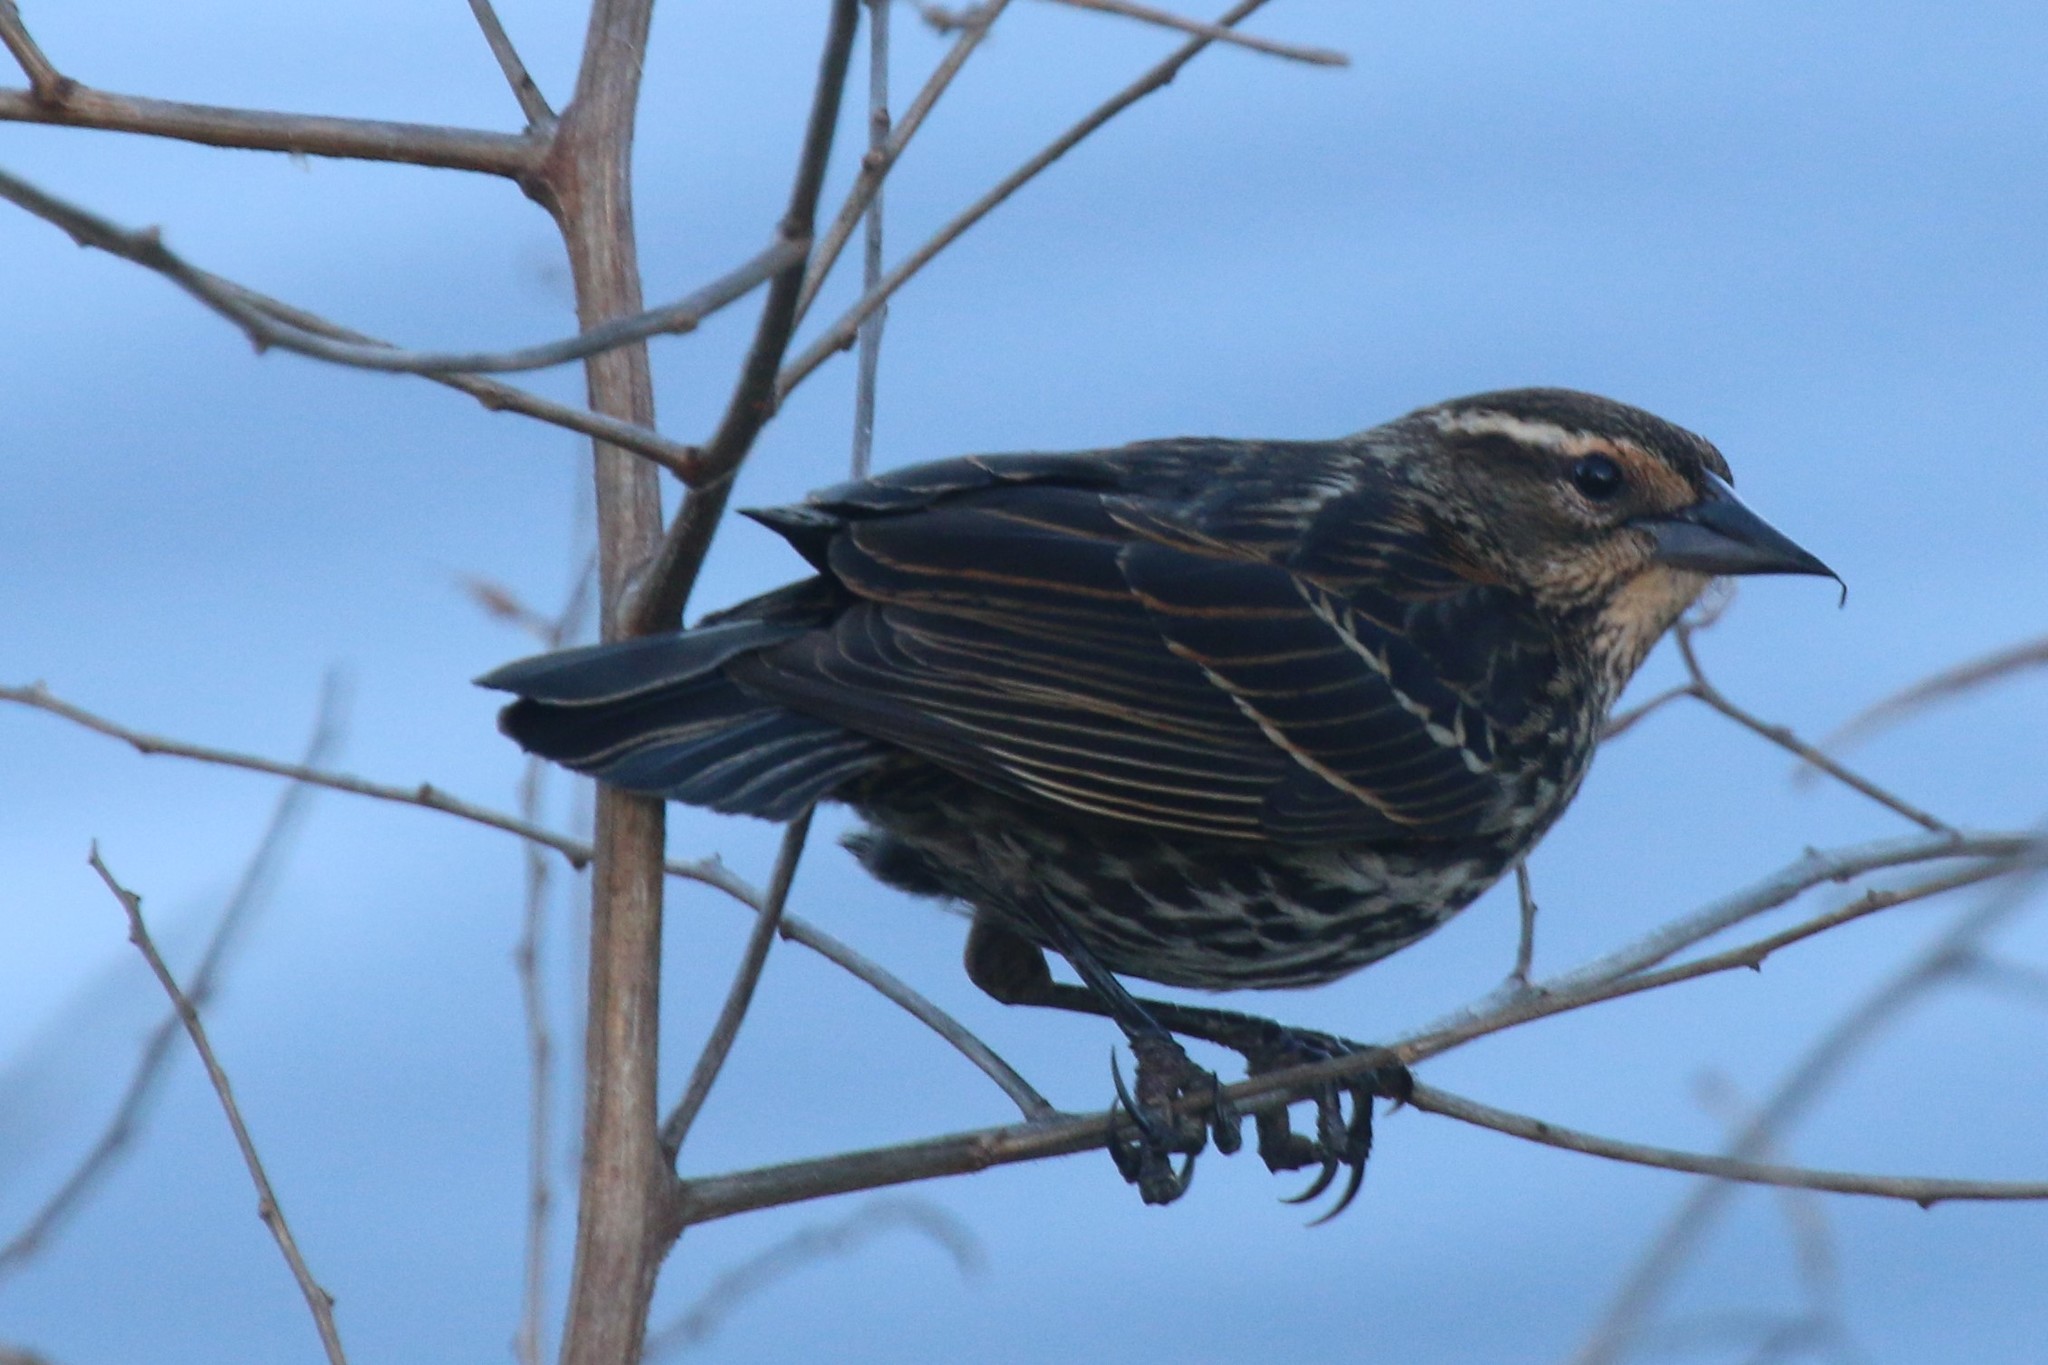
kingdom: Animalia
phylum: Chordata
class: Aves
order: Passeriformes
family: Icteridae
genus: Agelaius
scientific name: Agelaius phoeniceus
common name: Red-winged blackbird
